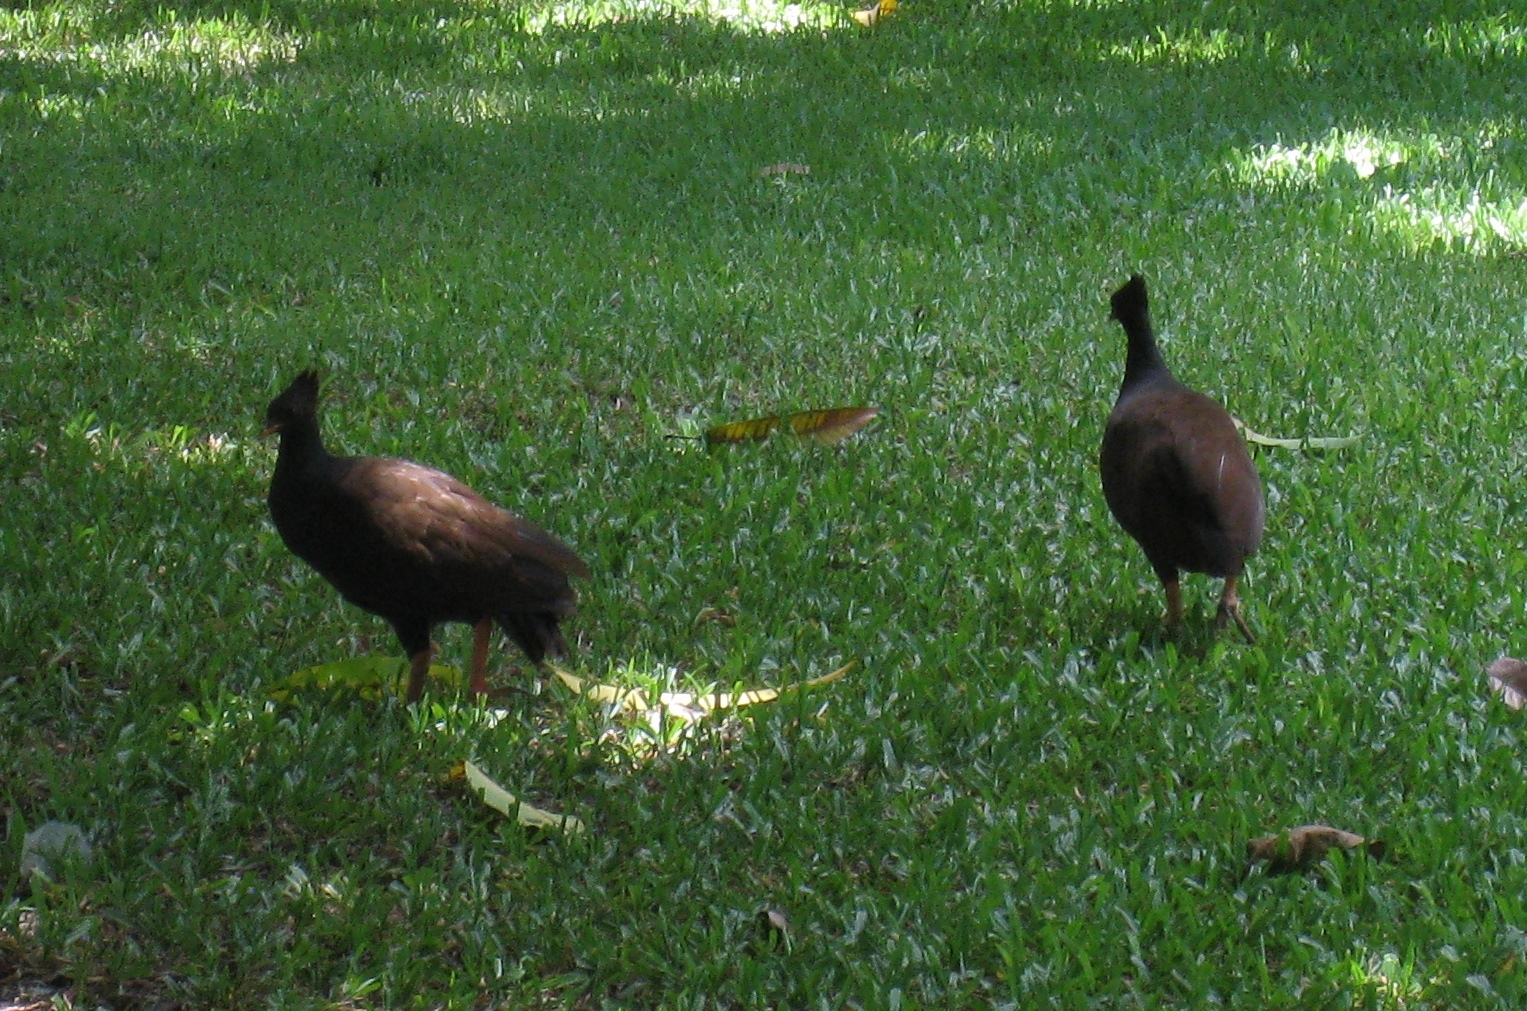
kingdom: Animalia
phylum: Chordata
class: Aves
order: Galliformes
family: Megapodiidae
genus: Megapodius
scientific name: Megapodius reinwardt
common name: Orange-footed scrubfowl
